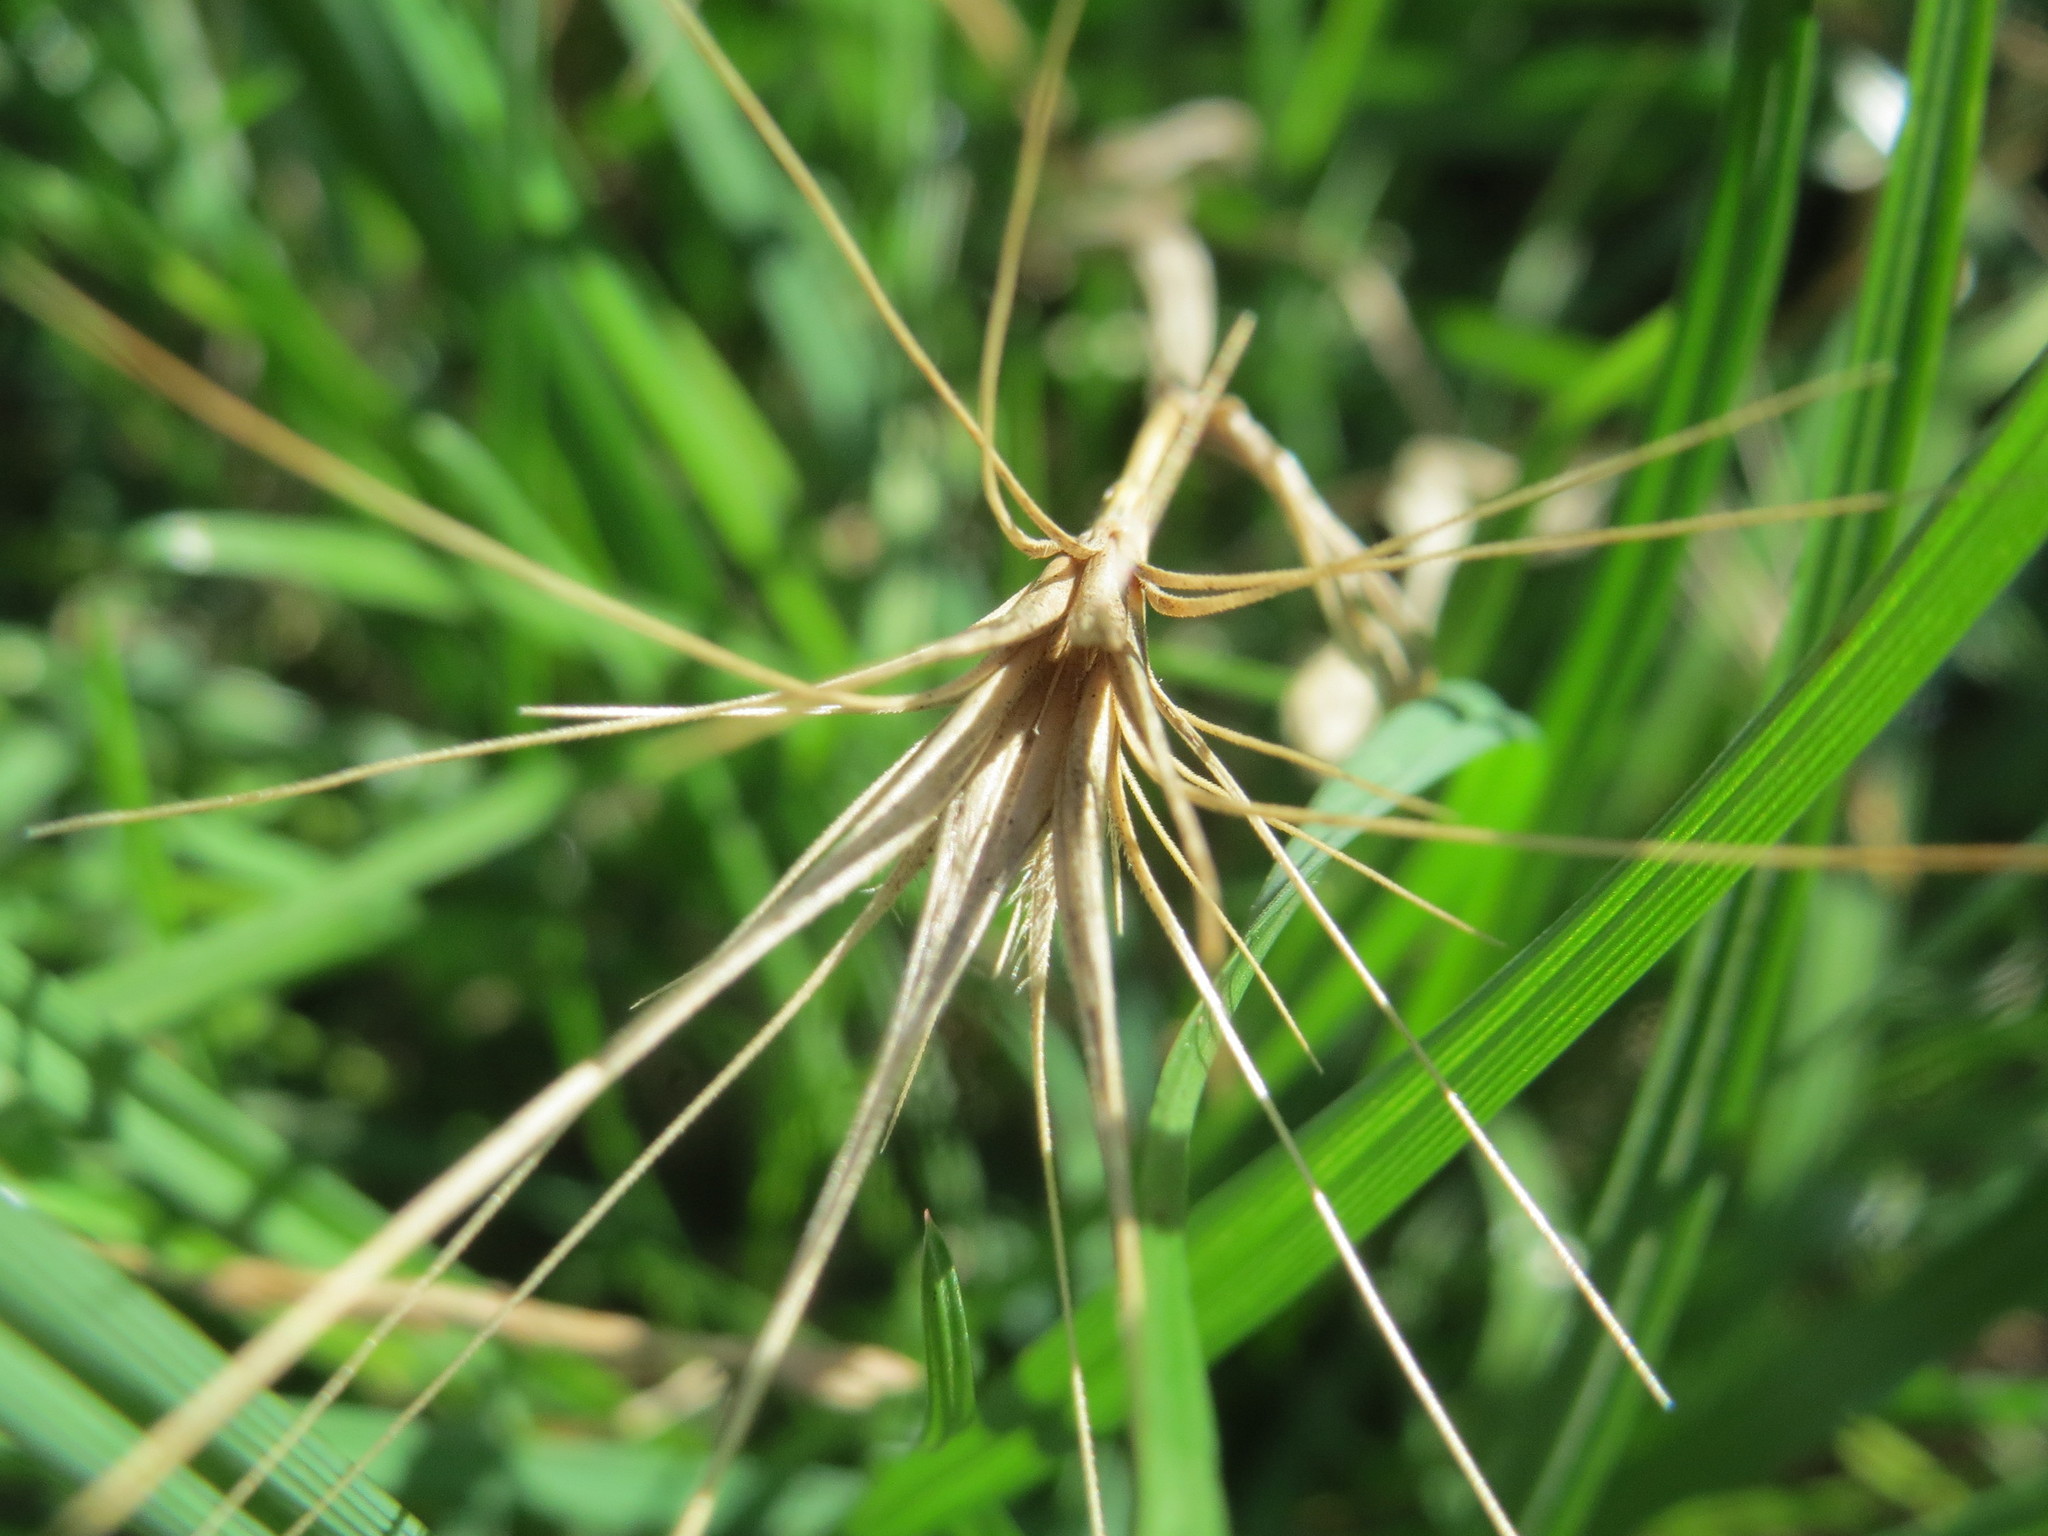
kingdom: Plantae
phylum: Tracheophyta
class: Liliopsida
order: Poales
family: Poaceae
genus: Hordeum
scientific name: Hordeum murinum
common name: Wall barley
